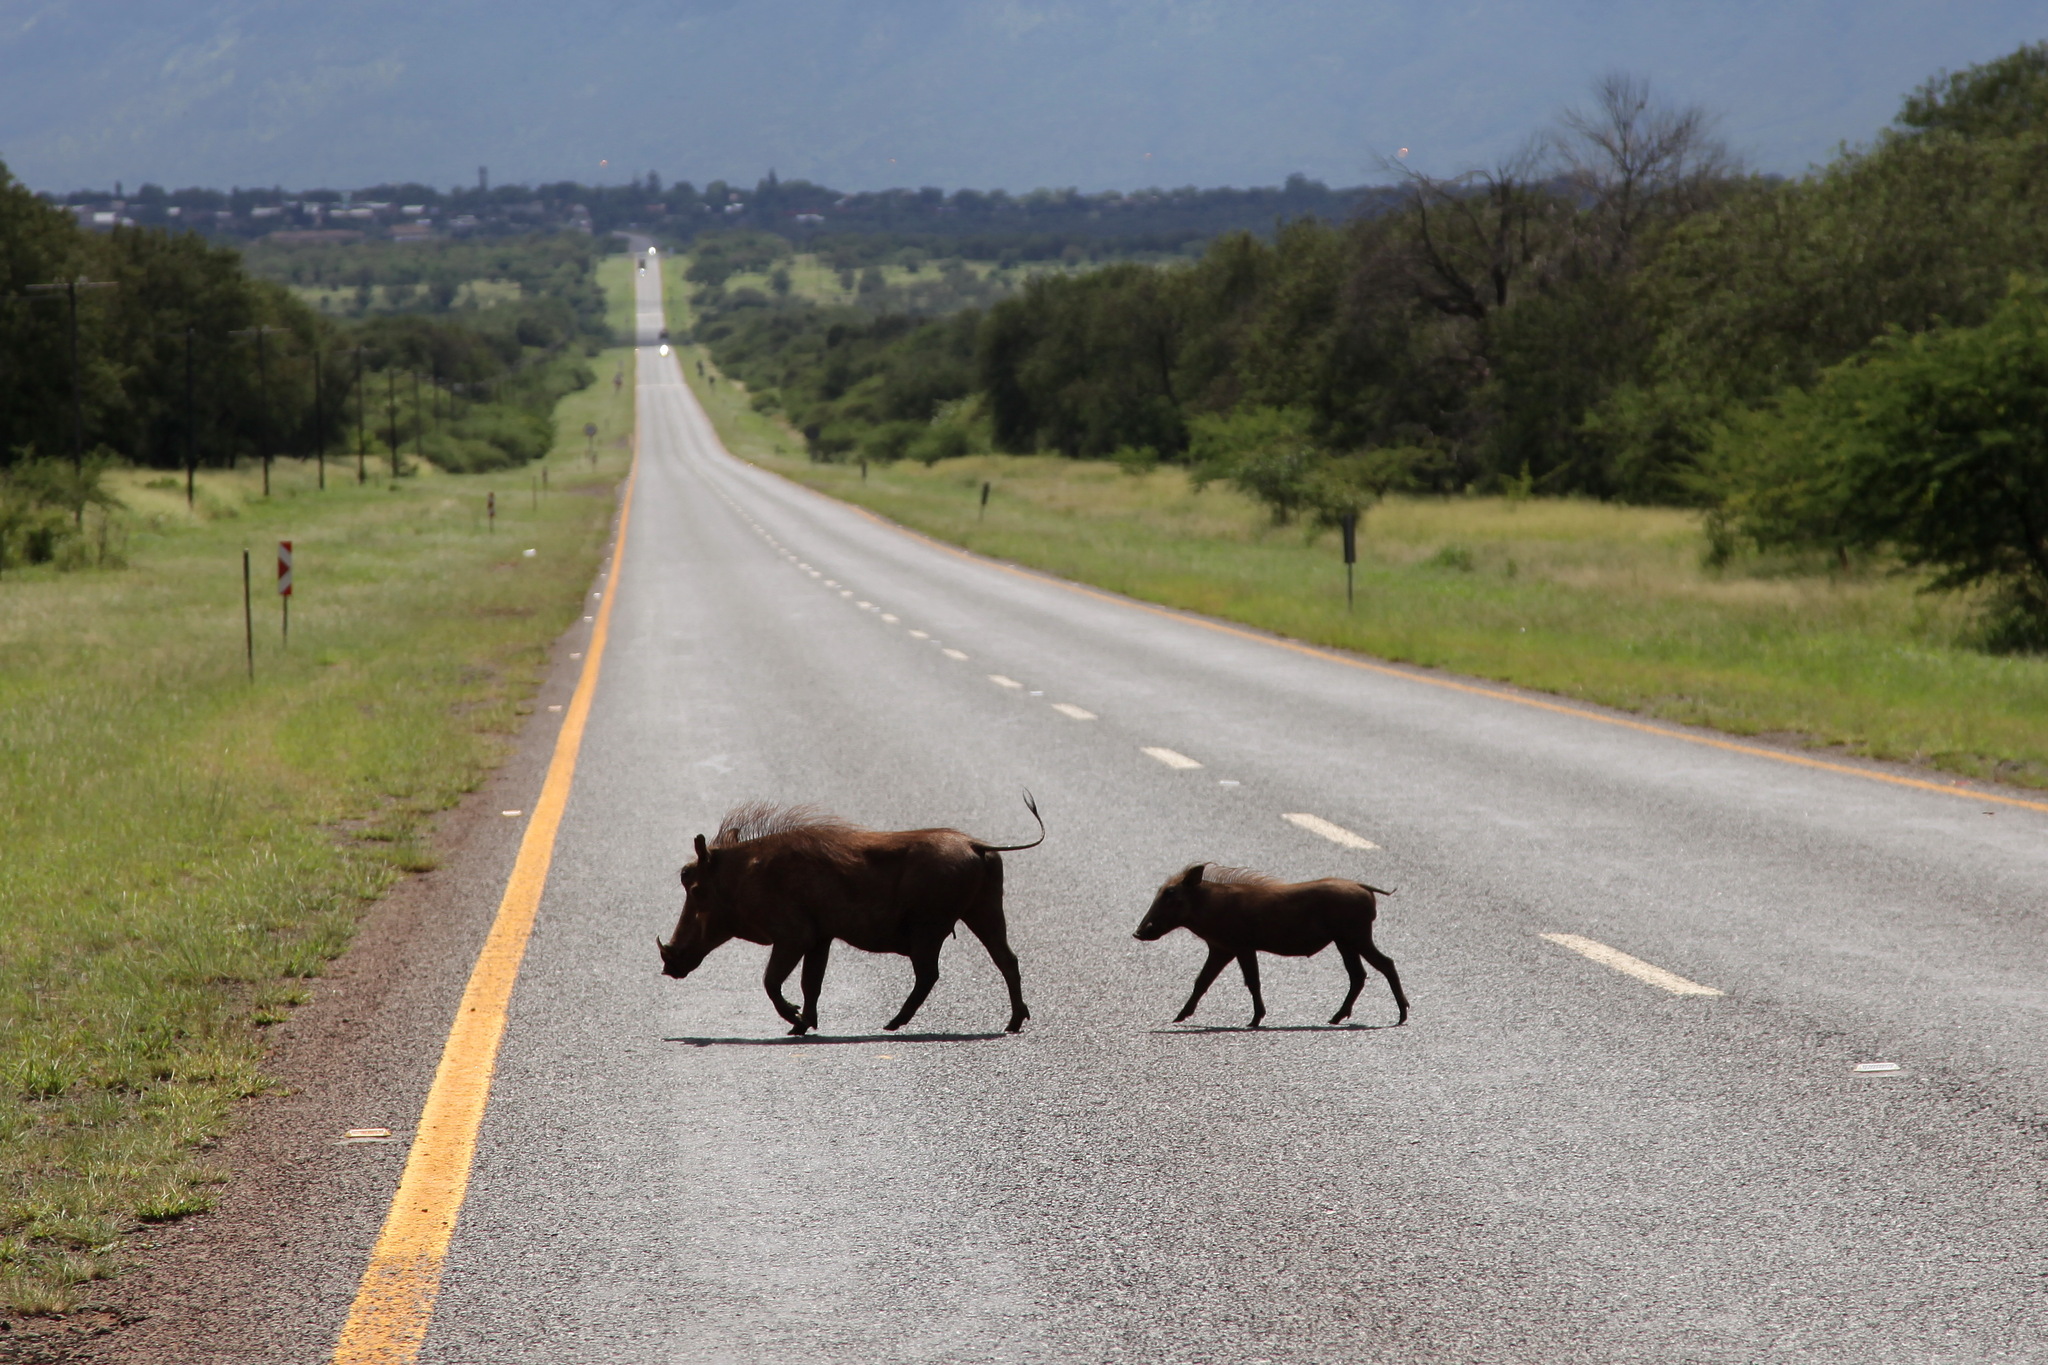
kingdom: Animalia
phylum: Chordata
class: Mammalia
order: Artiodactyla
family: Suidae
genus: Phacochoerus
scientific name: Phacochoerus africanus
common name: Common warthog
